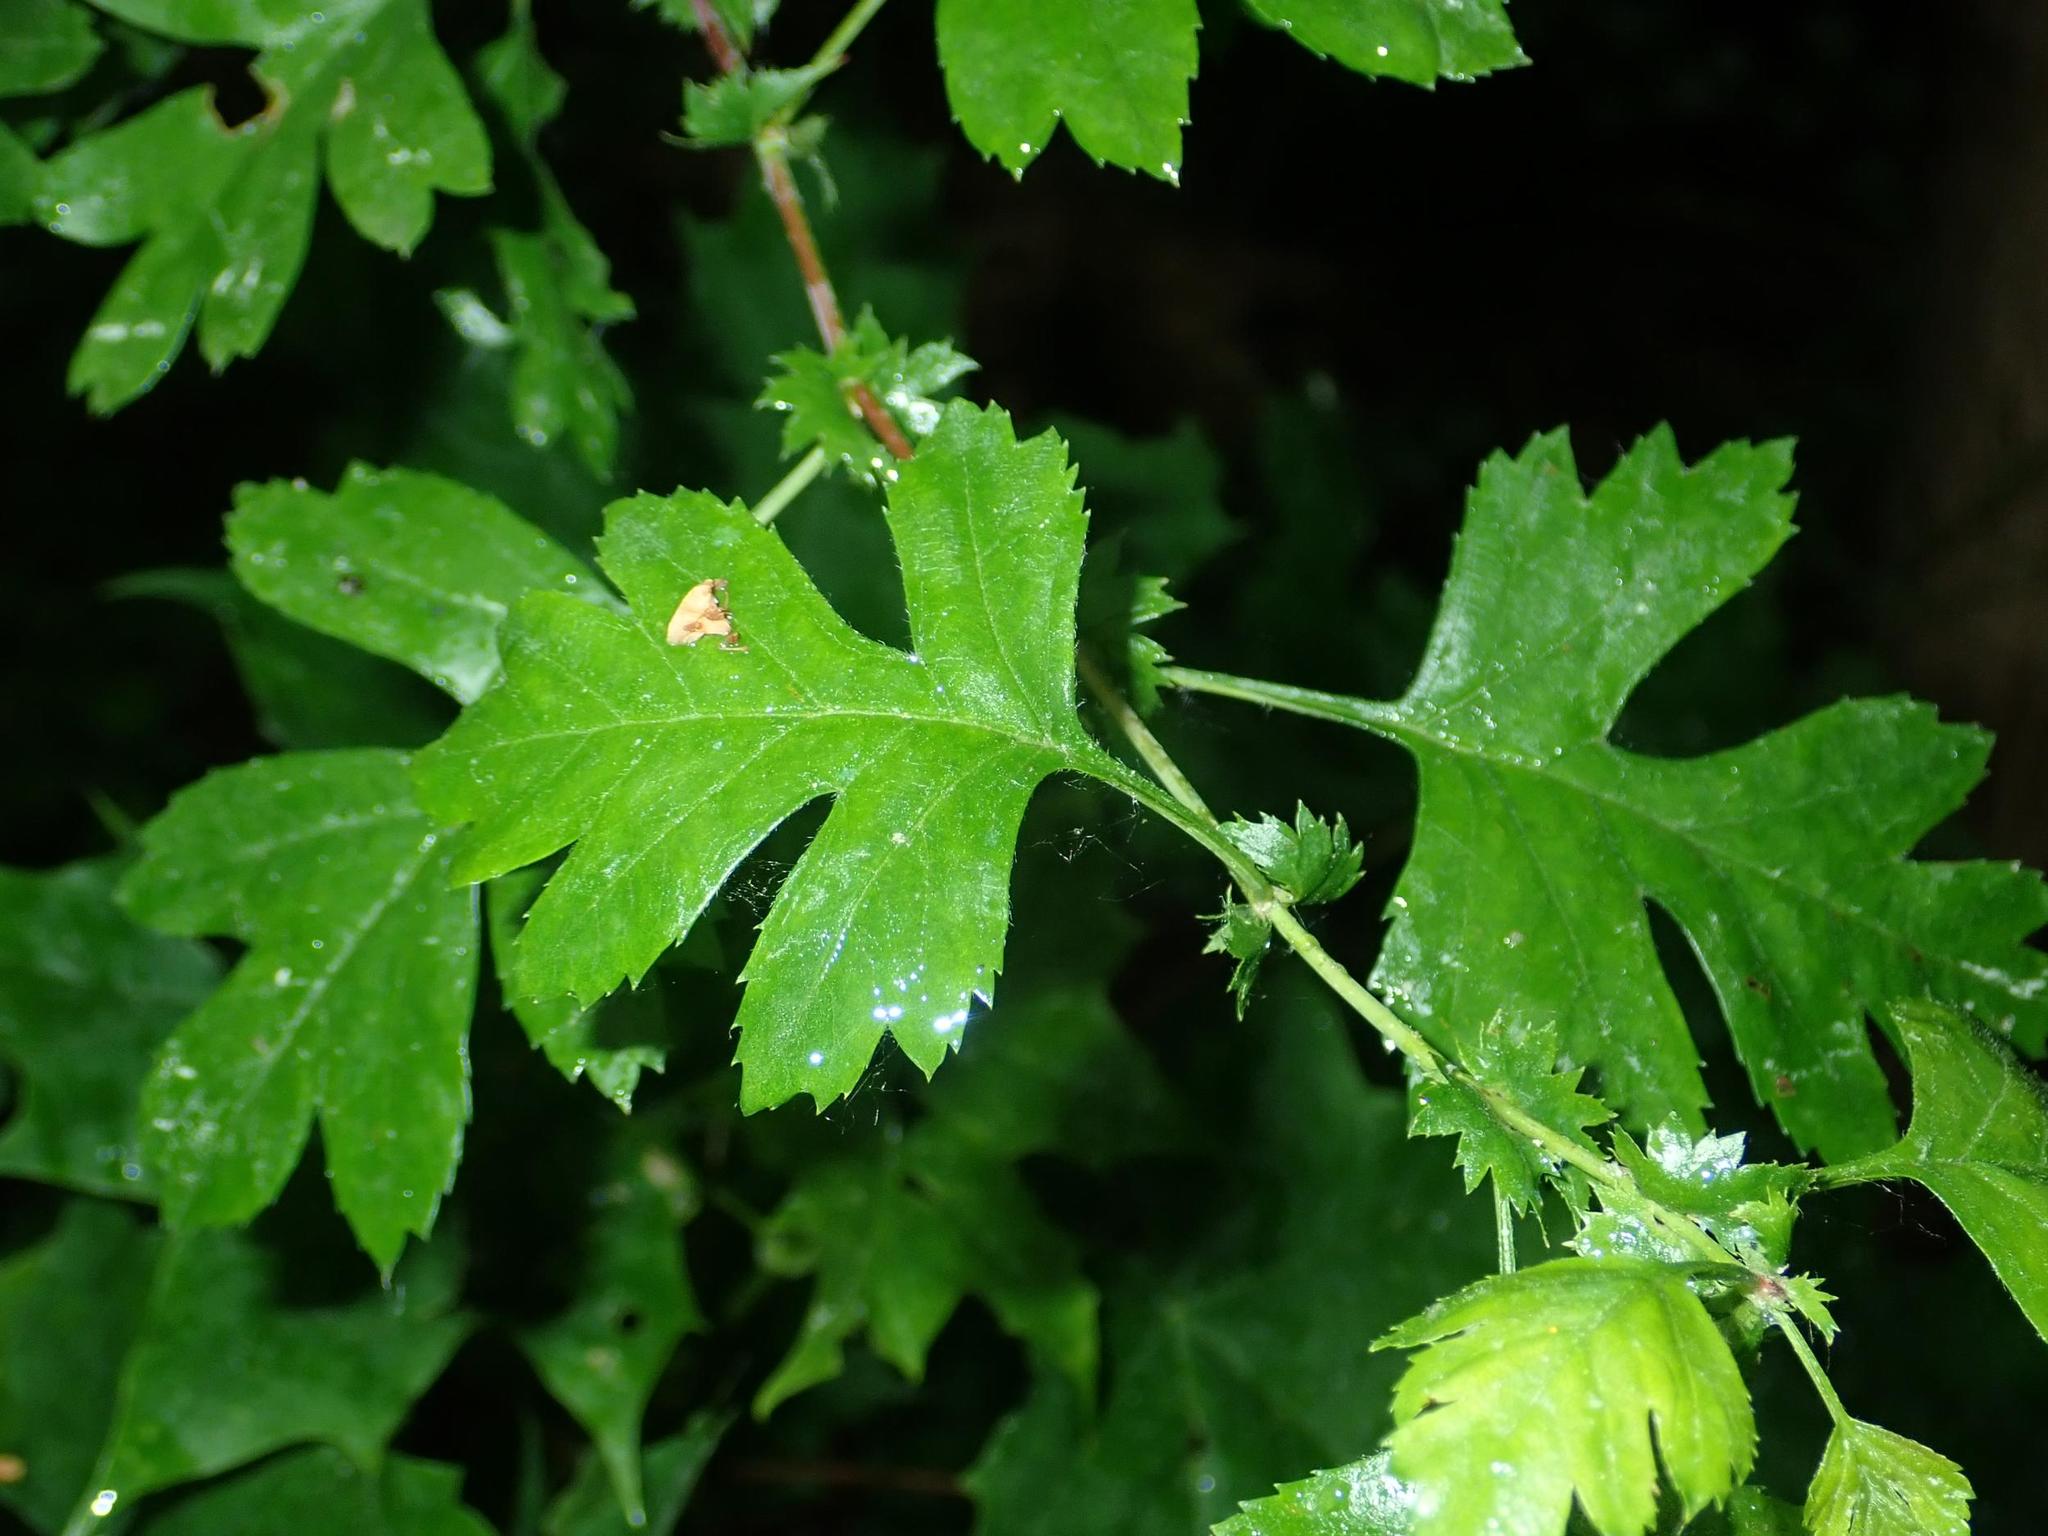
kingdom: Plantae
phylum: Tracheophyta
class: Magnoliopsida
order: Rosales
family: Rosaceae
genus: Crataegus
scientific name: Crataegus monogyna
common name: Hawthorn
